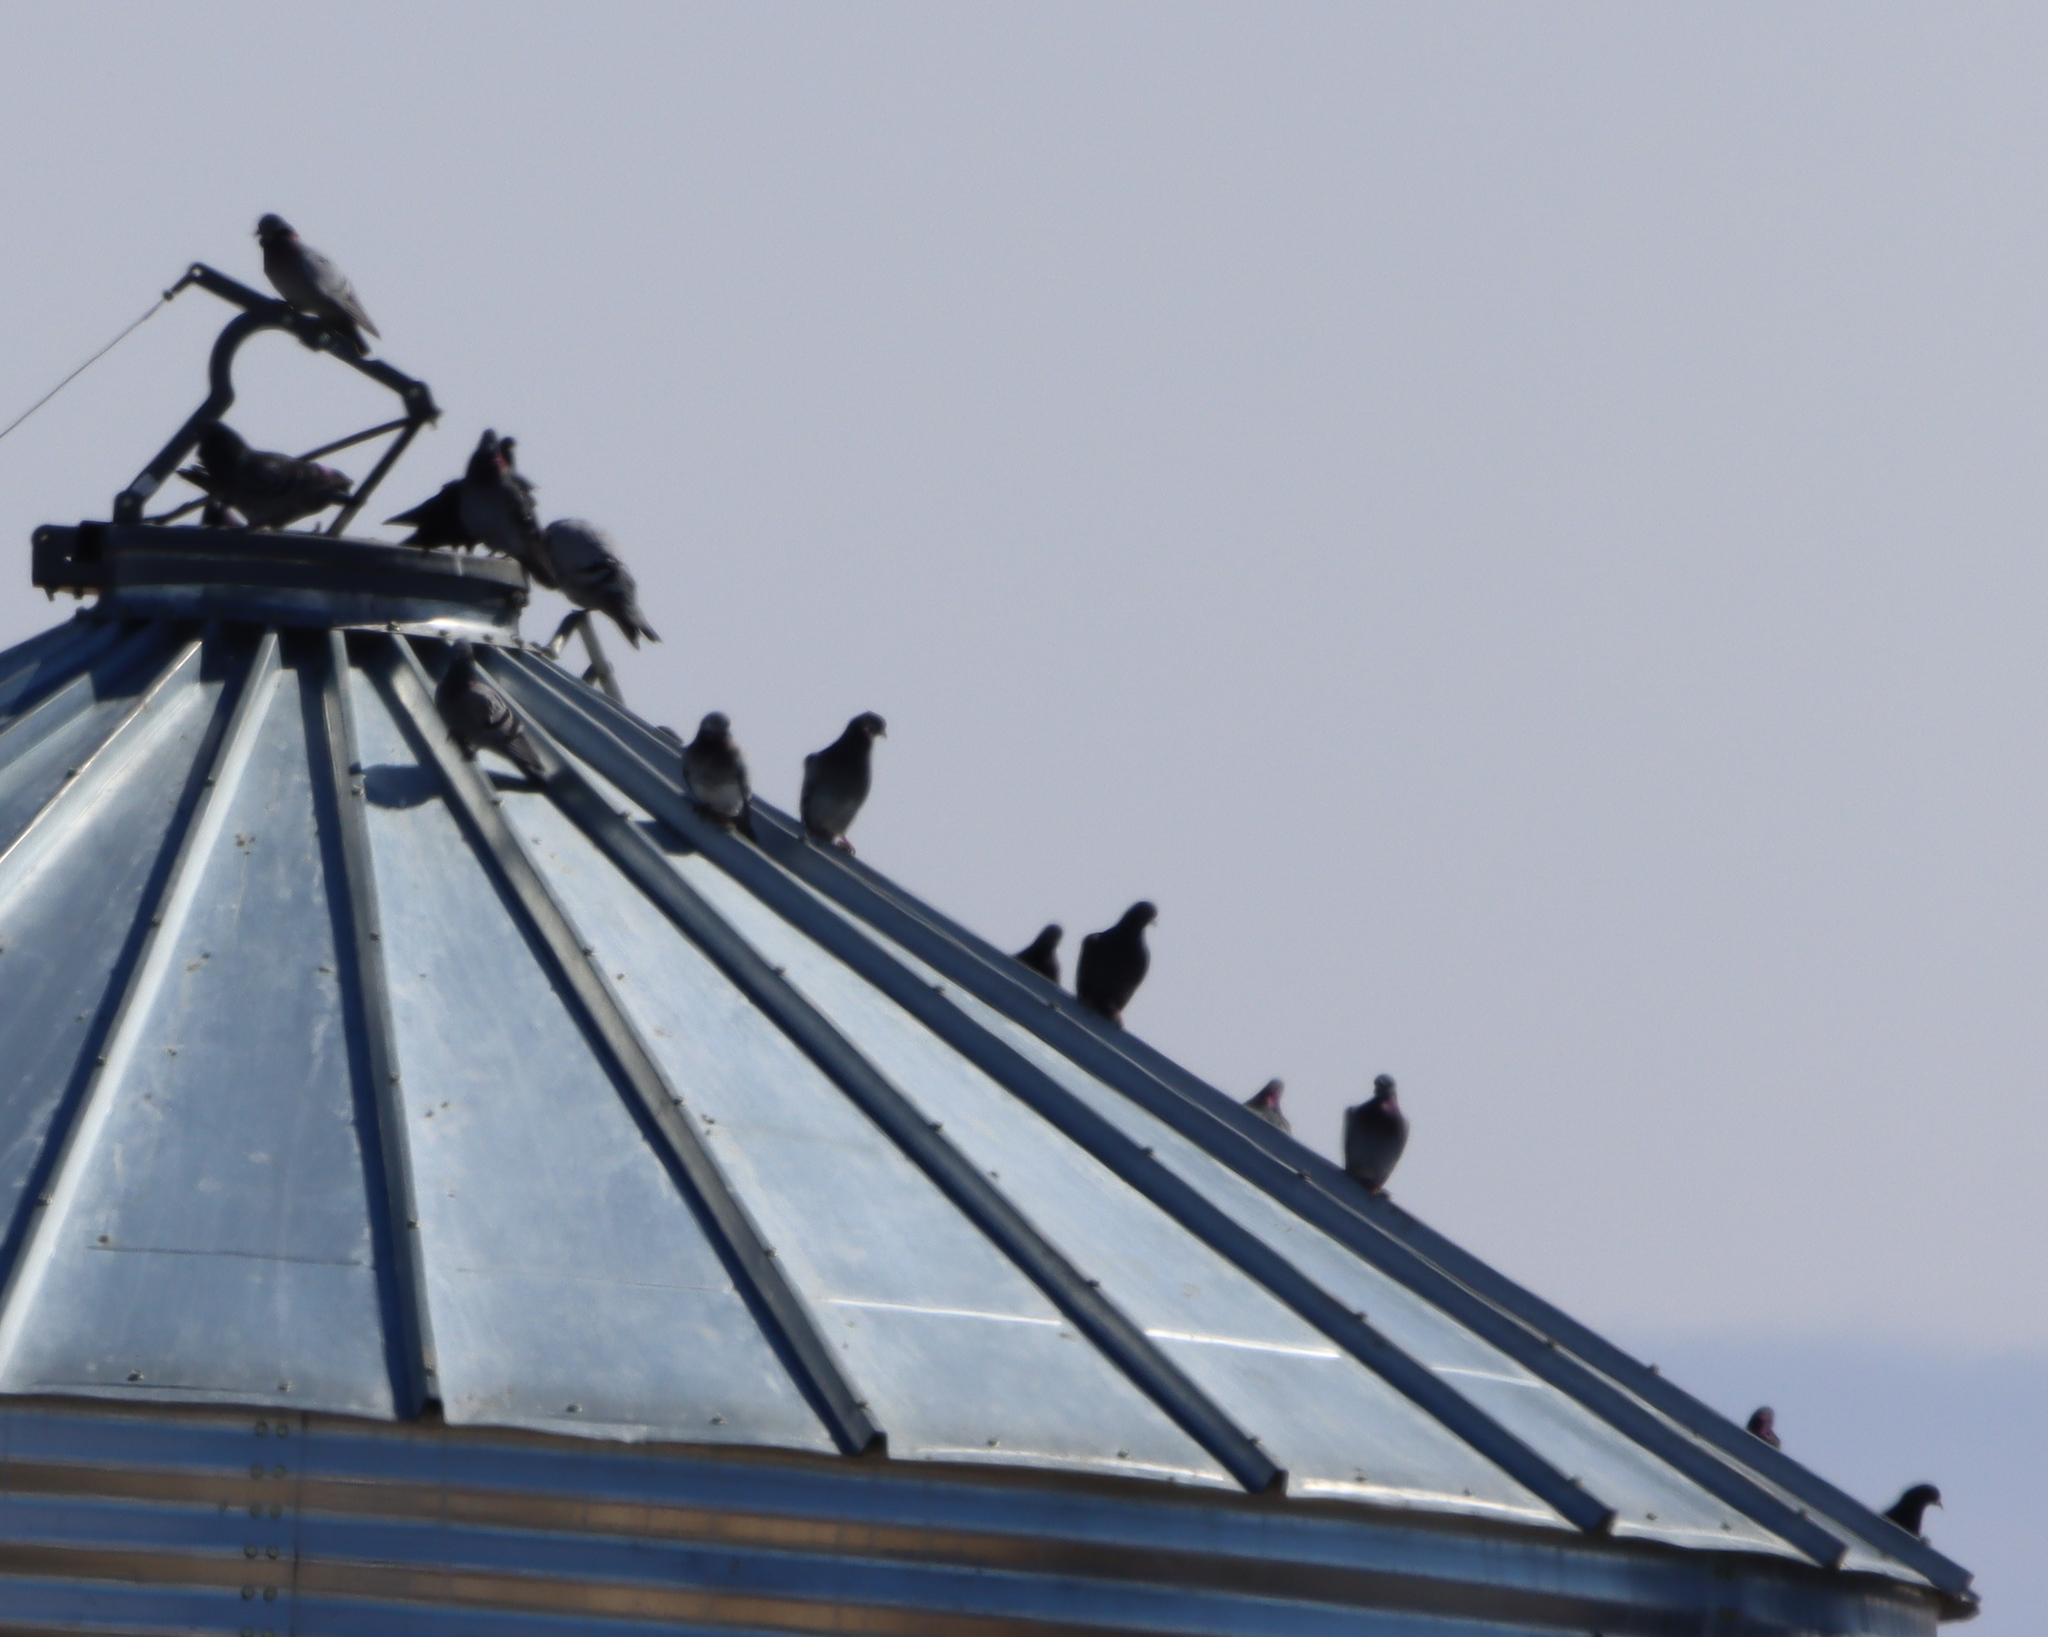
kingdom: Animalia
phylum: Chordata
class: Aves
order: Columbiformes
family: Columbidae
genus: Columba
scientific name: Columba livia
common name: Rock pigeon
